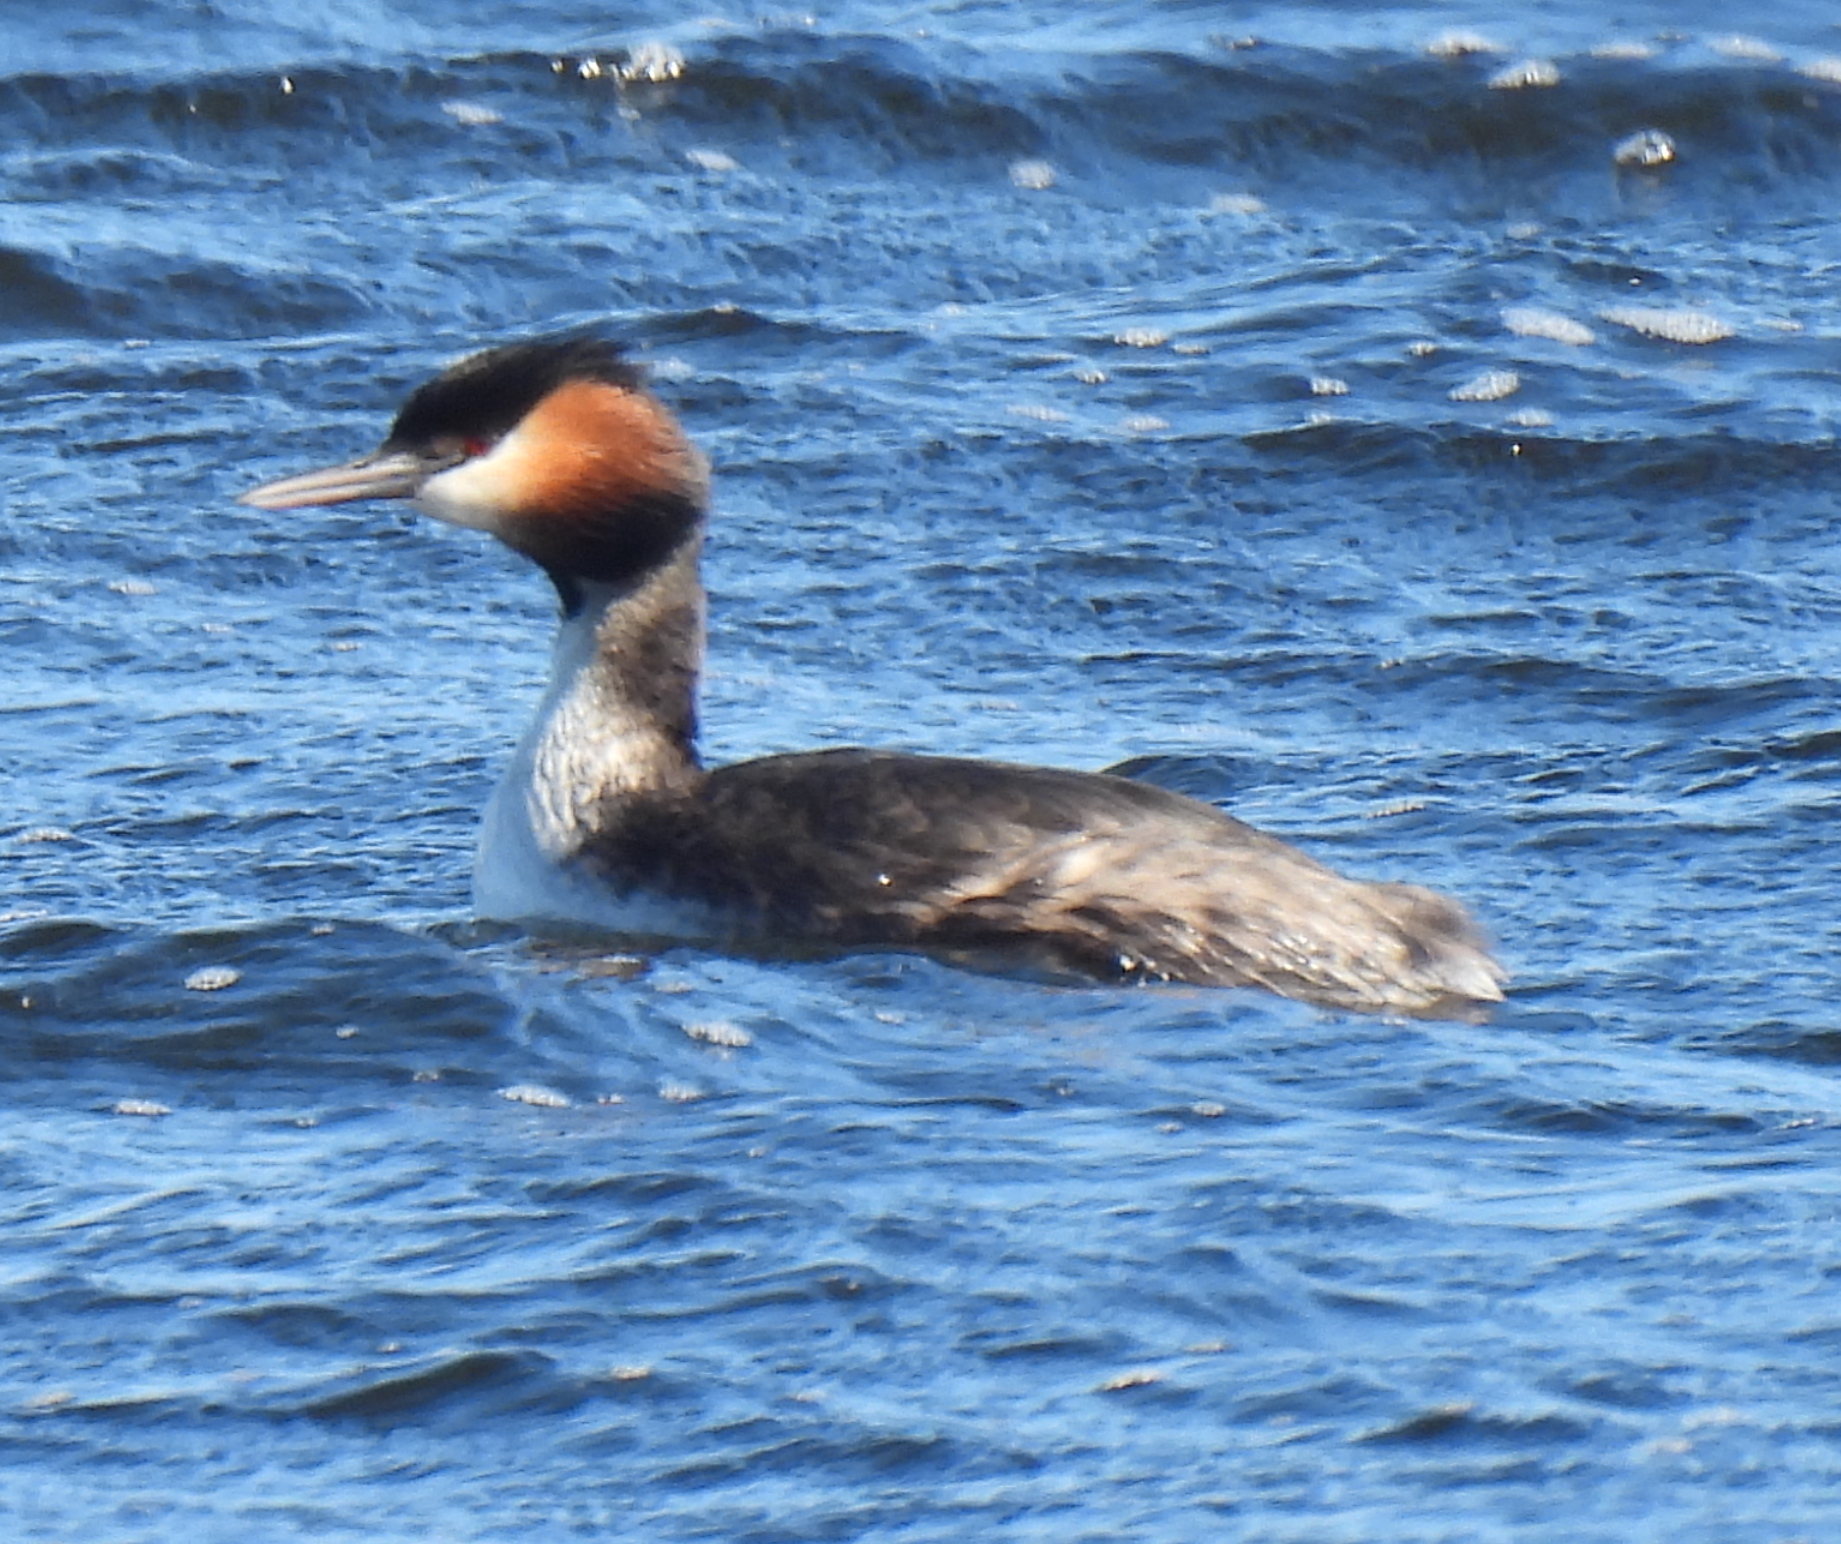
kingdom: Animalia
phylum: Chordata
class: Aves
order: Podicipediformes
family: Podicipedidae
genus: Podiceps
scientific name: Podiceps cristatus
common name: Great crested grebe
